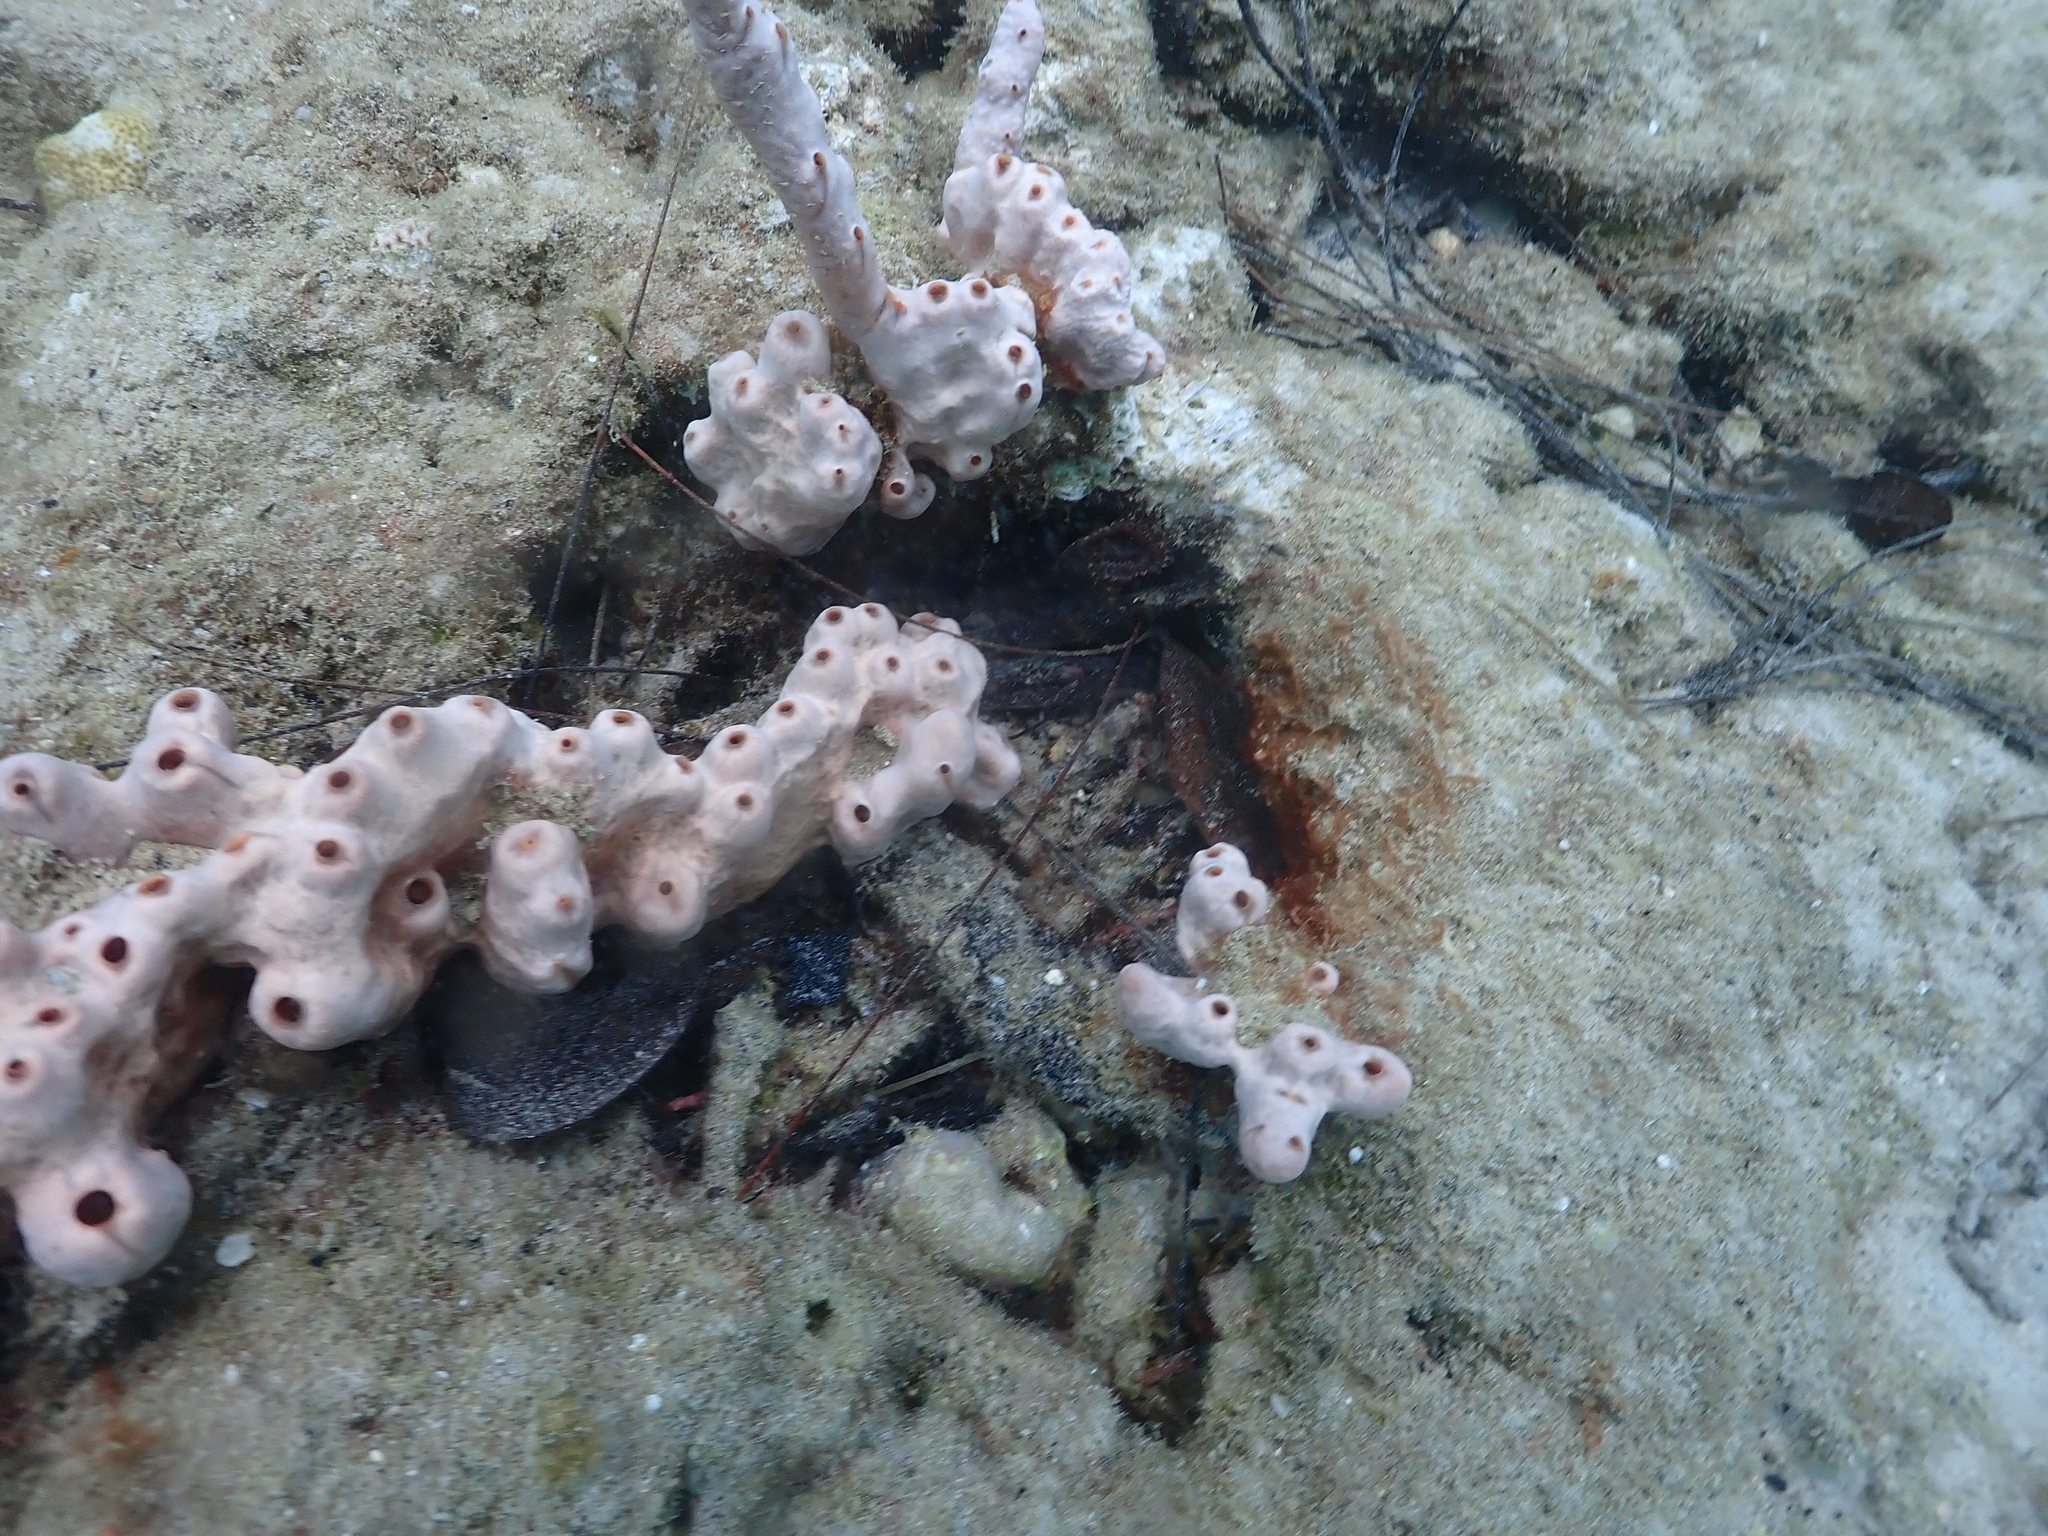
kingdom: Animalia
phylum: Porifera
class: Demospongiae
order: Poecilosclerida
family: Desmacididae
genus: Desmapsamma
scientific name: Desmapsamma anchorata
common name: Lumpy overgrowing sponge
